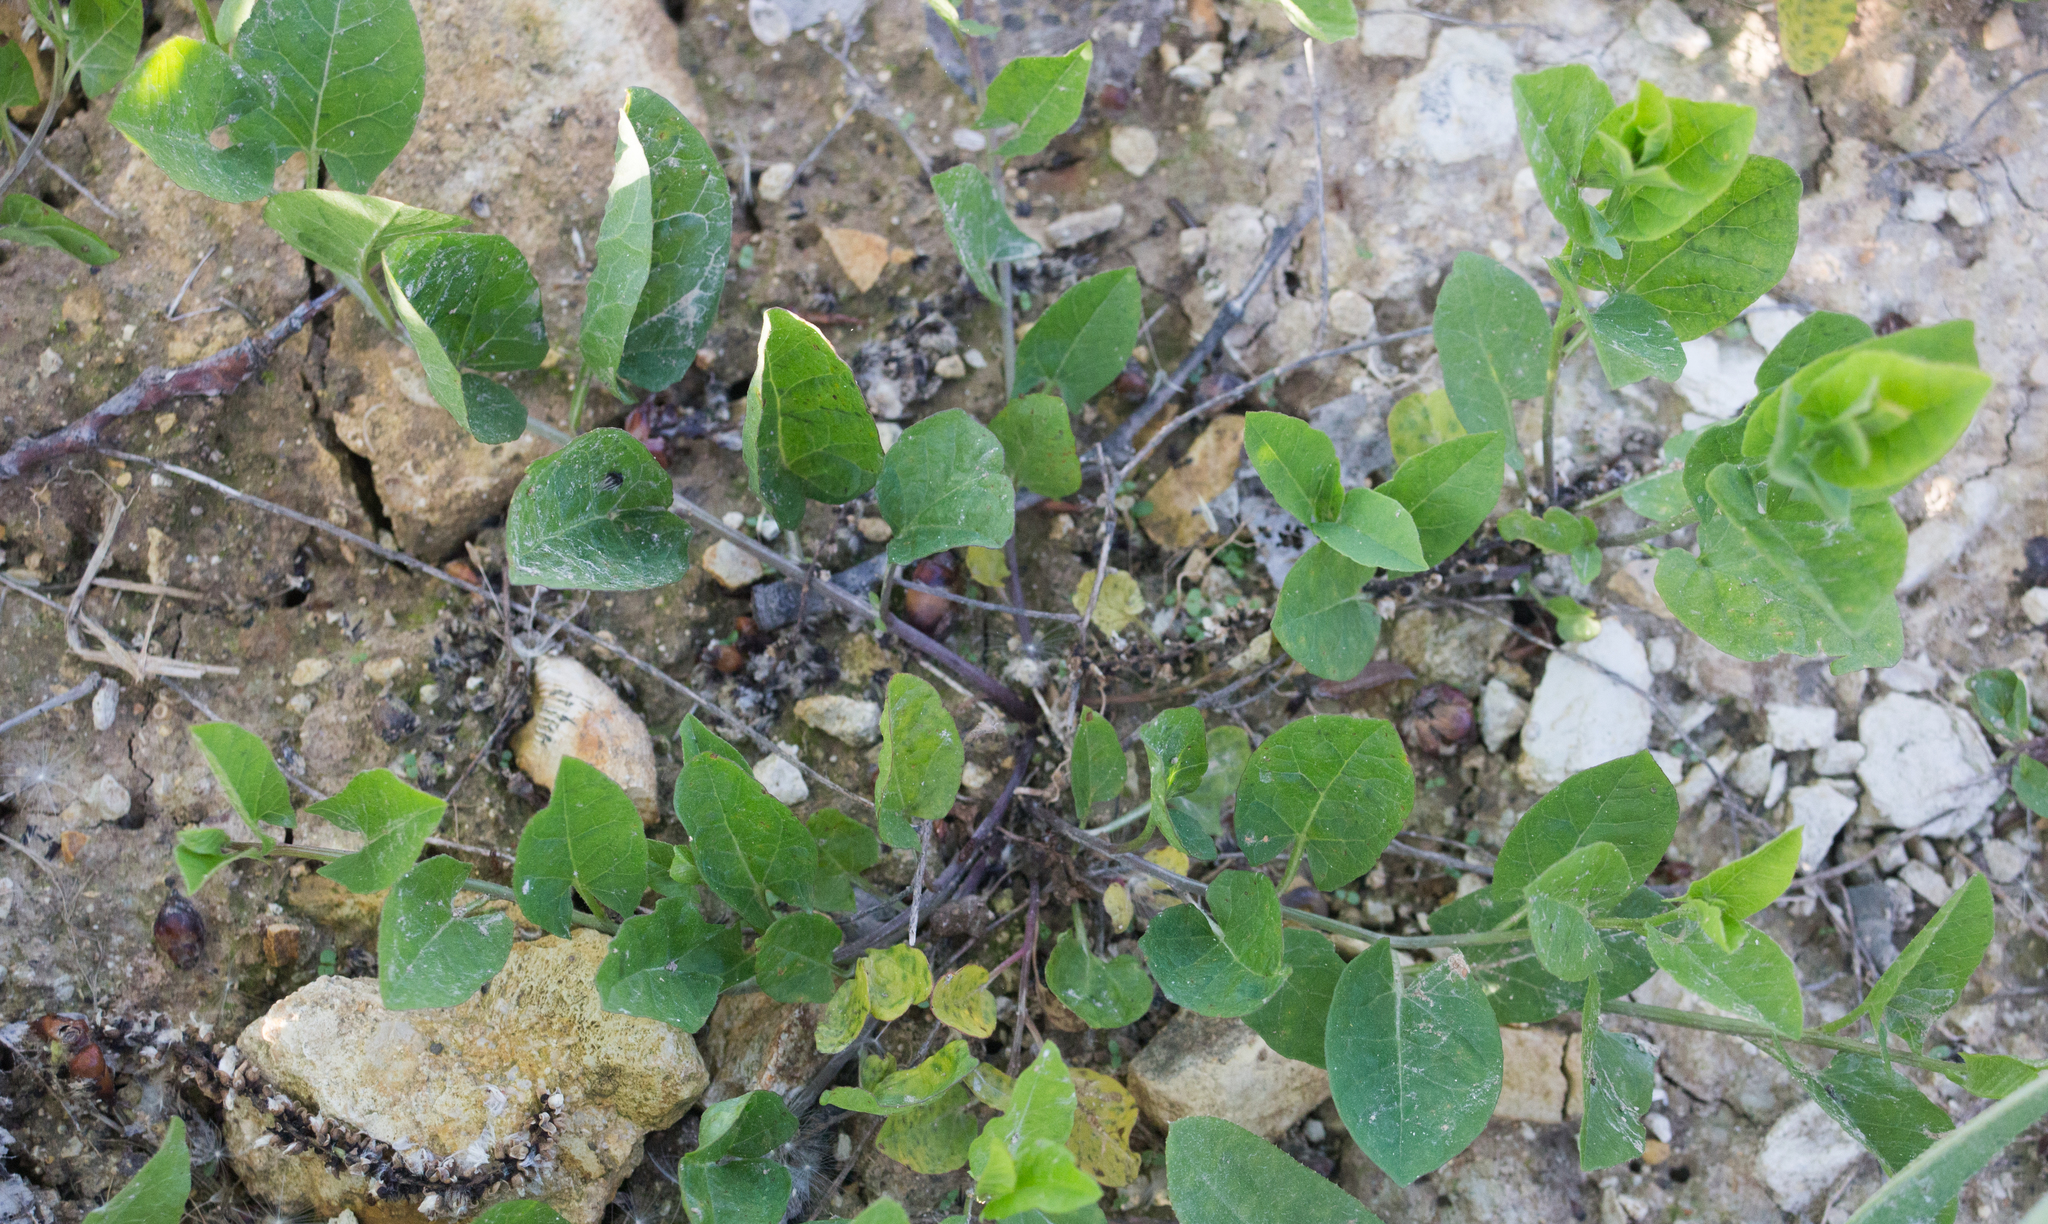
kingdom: Plantae
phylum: Tracheophyta
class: Magnoliopsida
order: Solanales
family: Convolvulaceae
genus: Convolvulus
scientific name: Convolvulus arvensis
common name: Field bindweed
